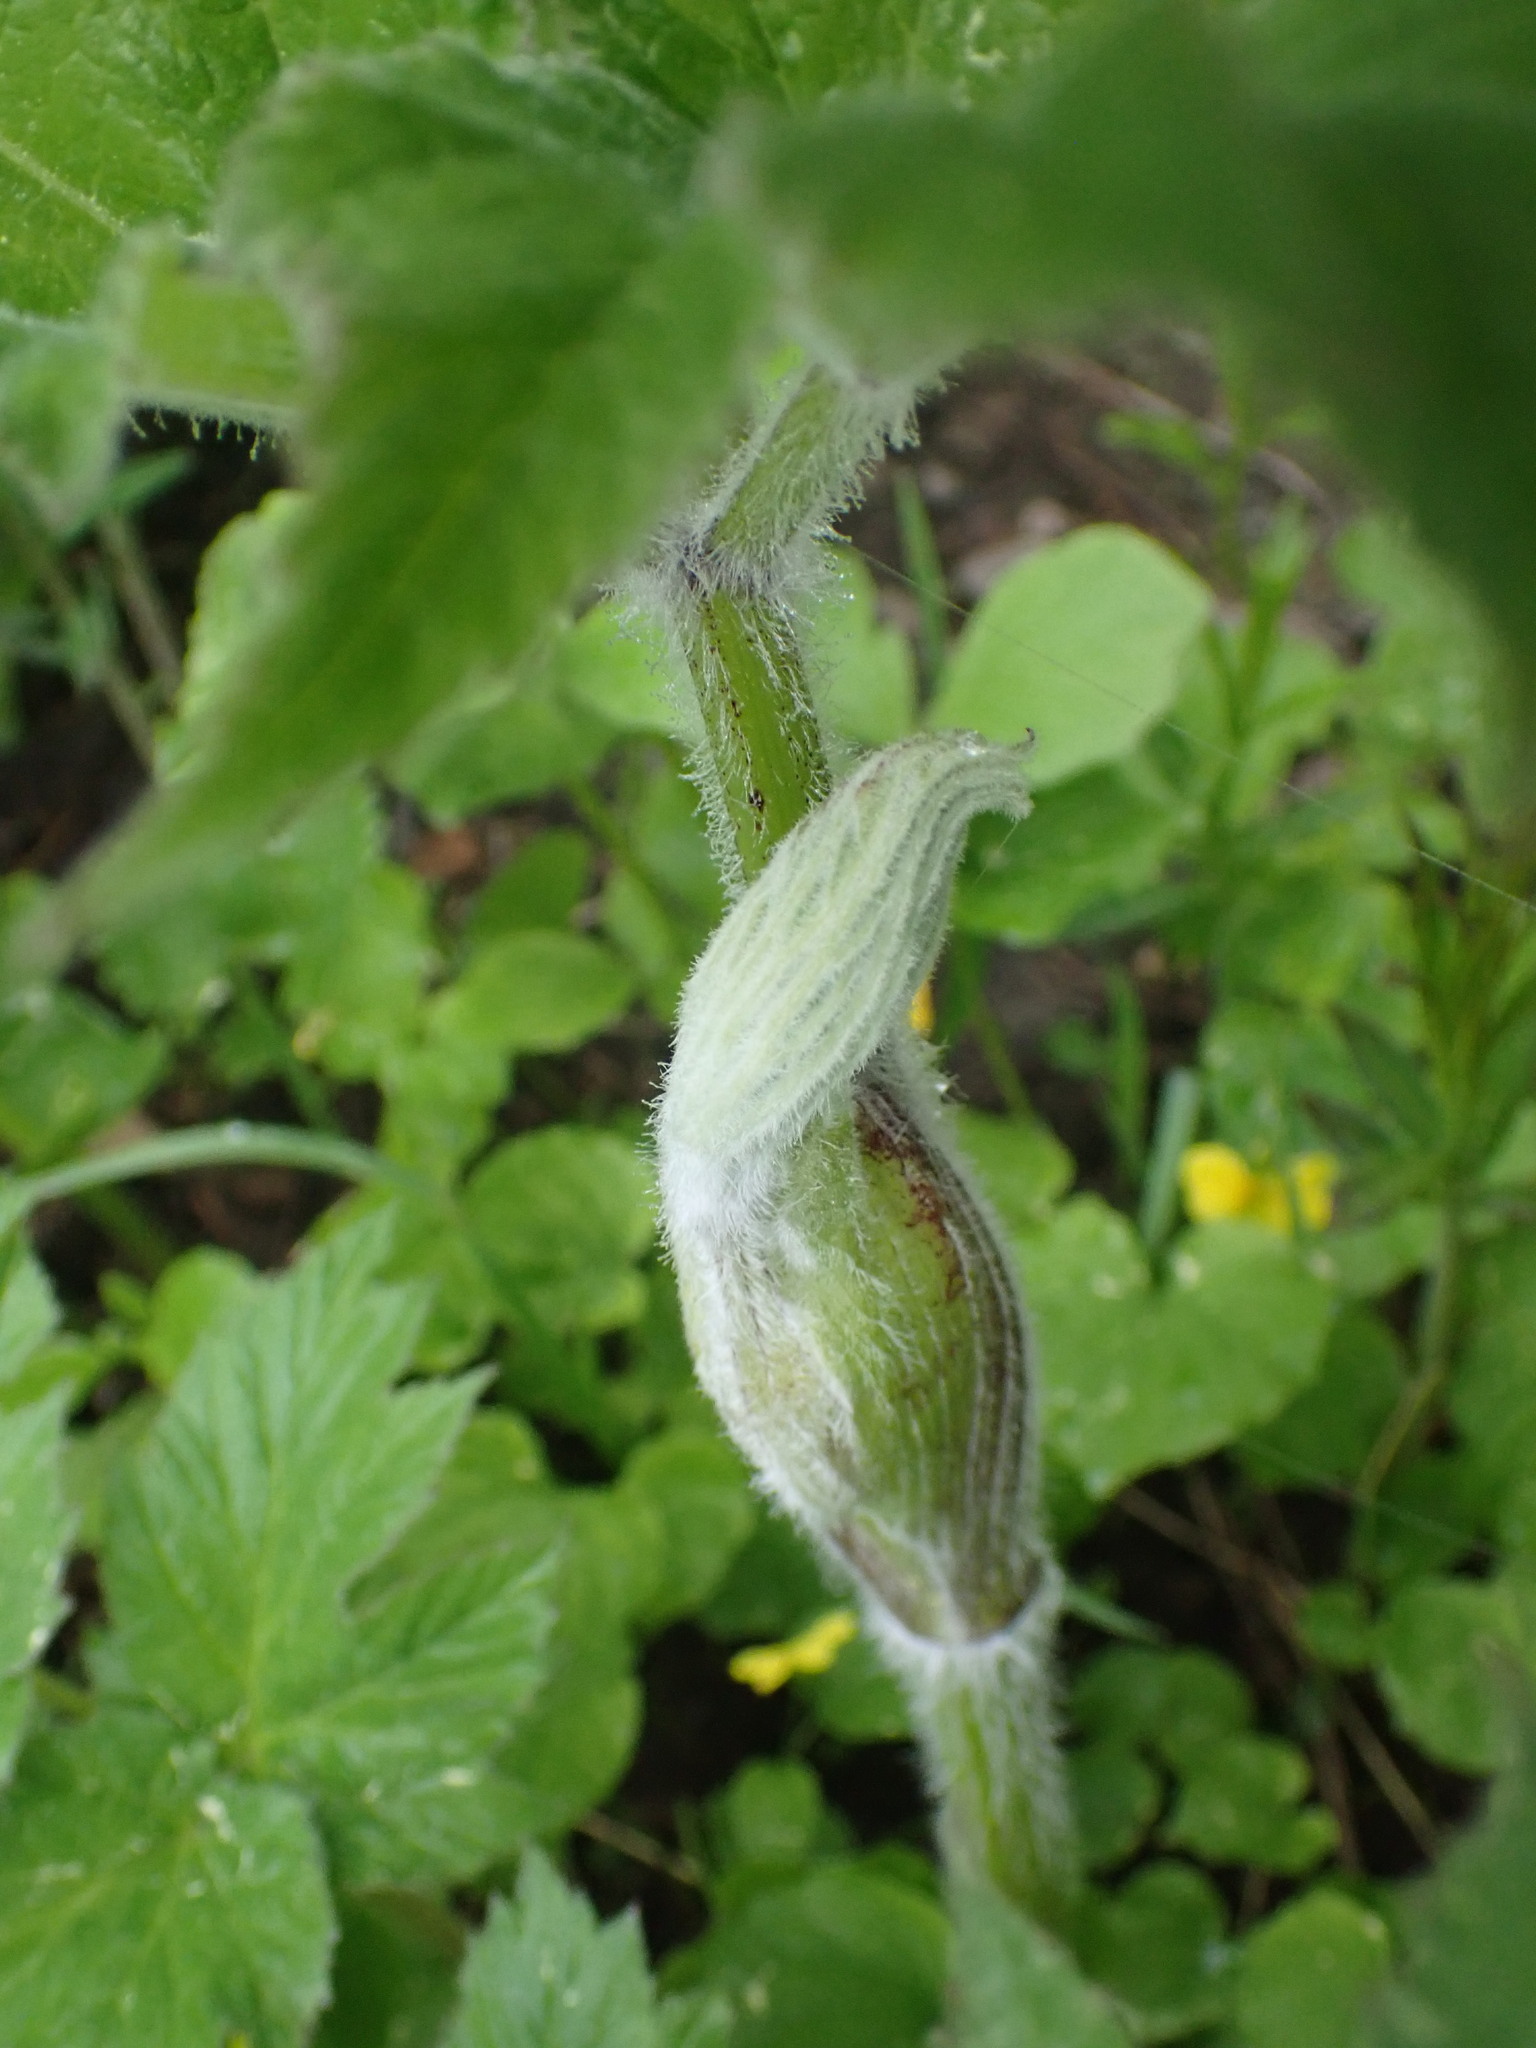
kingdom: Plantae
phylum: Tracheophyta
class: Magnoliopsida
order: Apiales
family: Apiaceae
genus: Heracleum
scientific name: Heracleum maximum
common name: American cow parsnip
